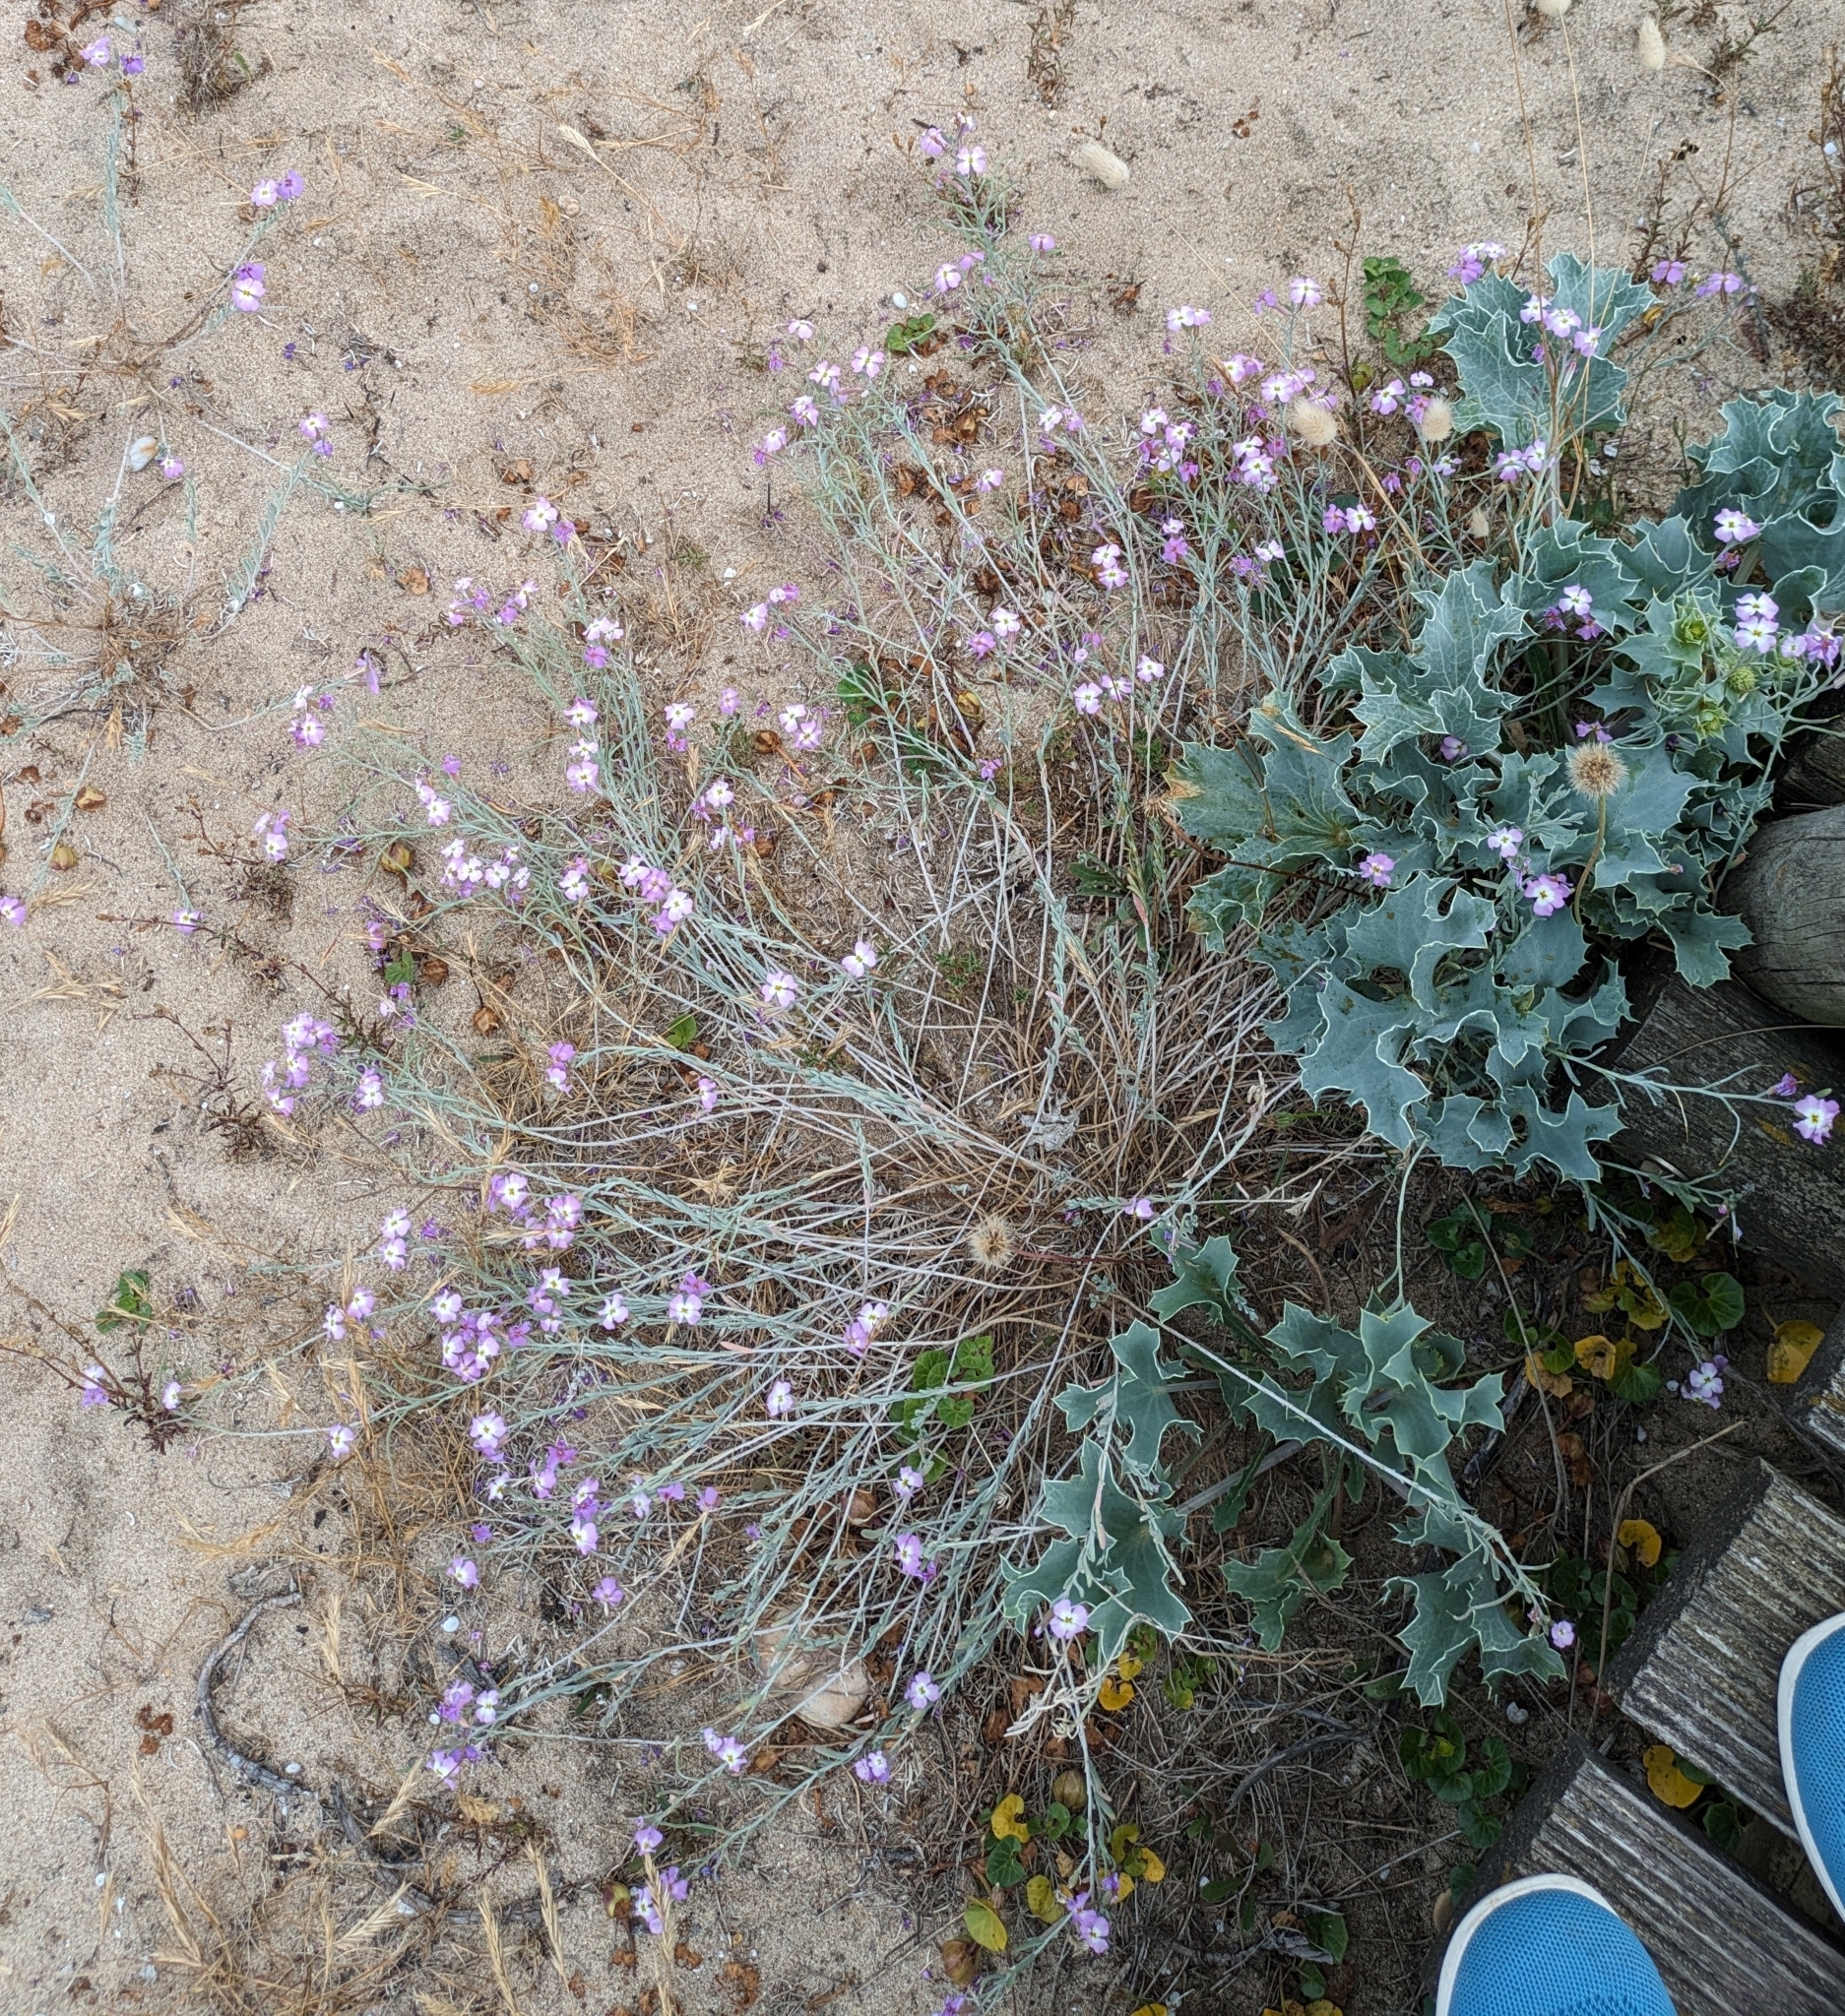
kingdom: Plantae
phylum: Tracheophyta
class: Magnoliopsida
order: Brassicales
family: Brassicaceae
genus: Marcuskochia
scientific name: Marcuskochia littorea
